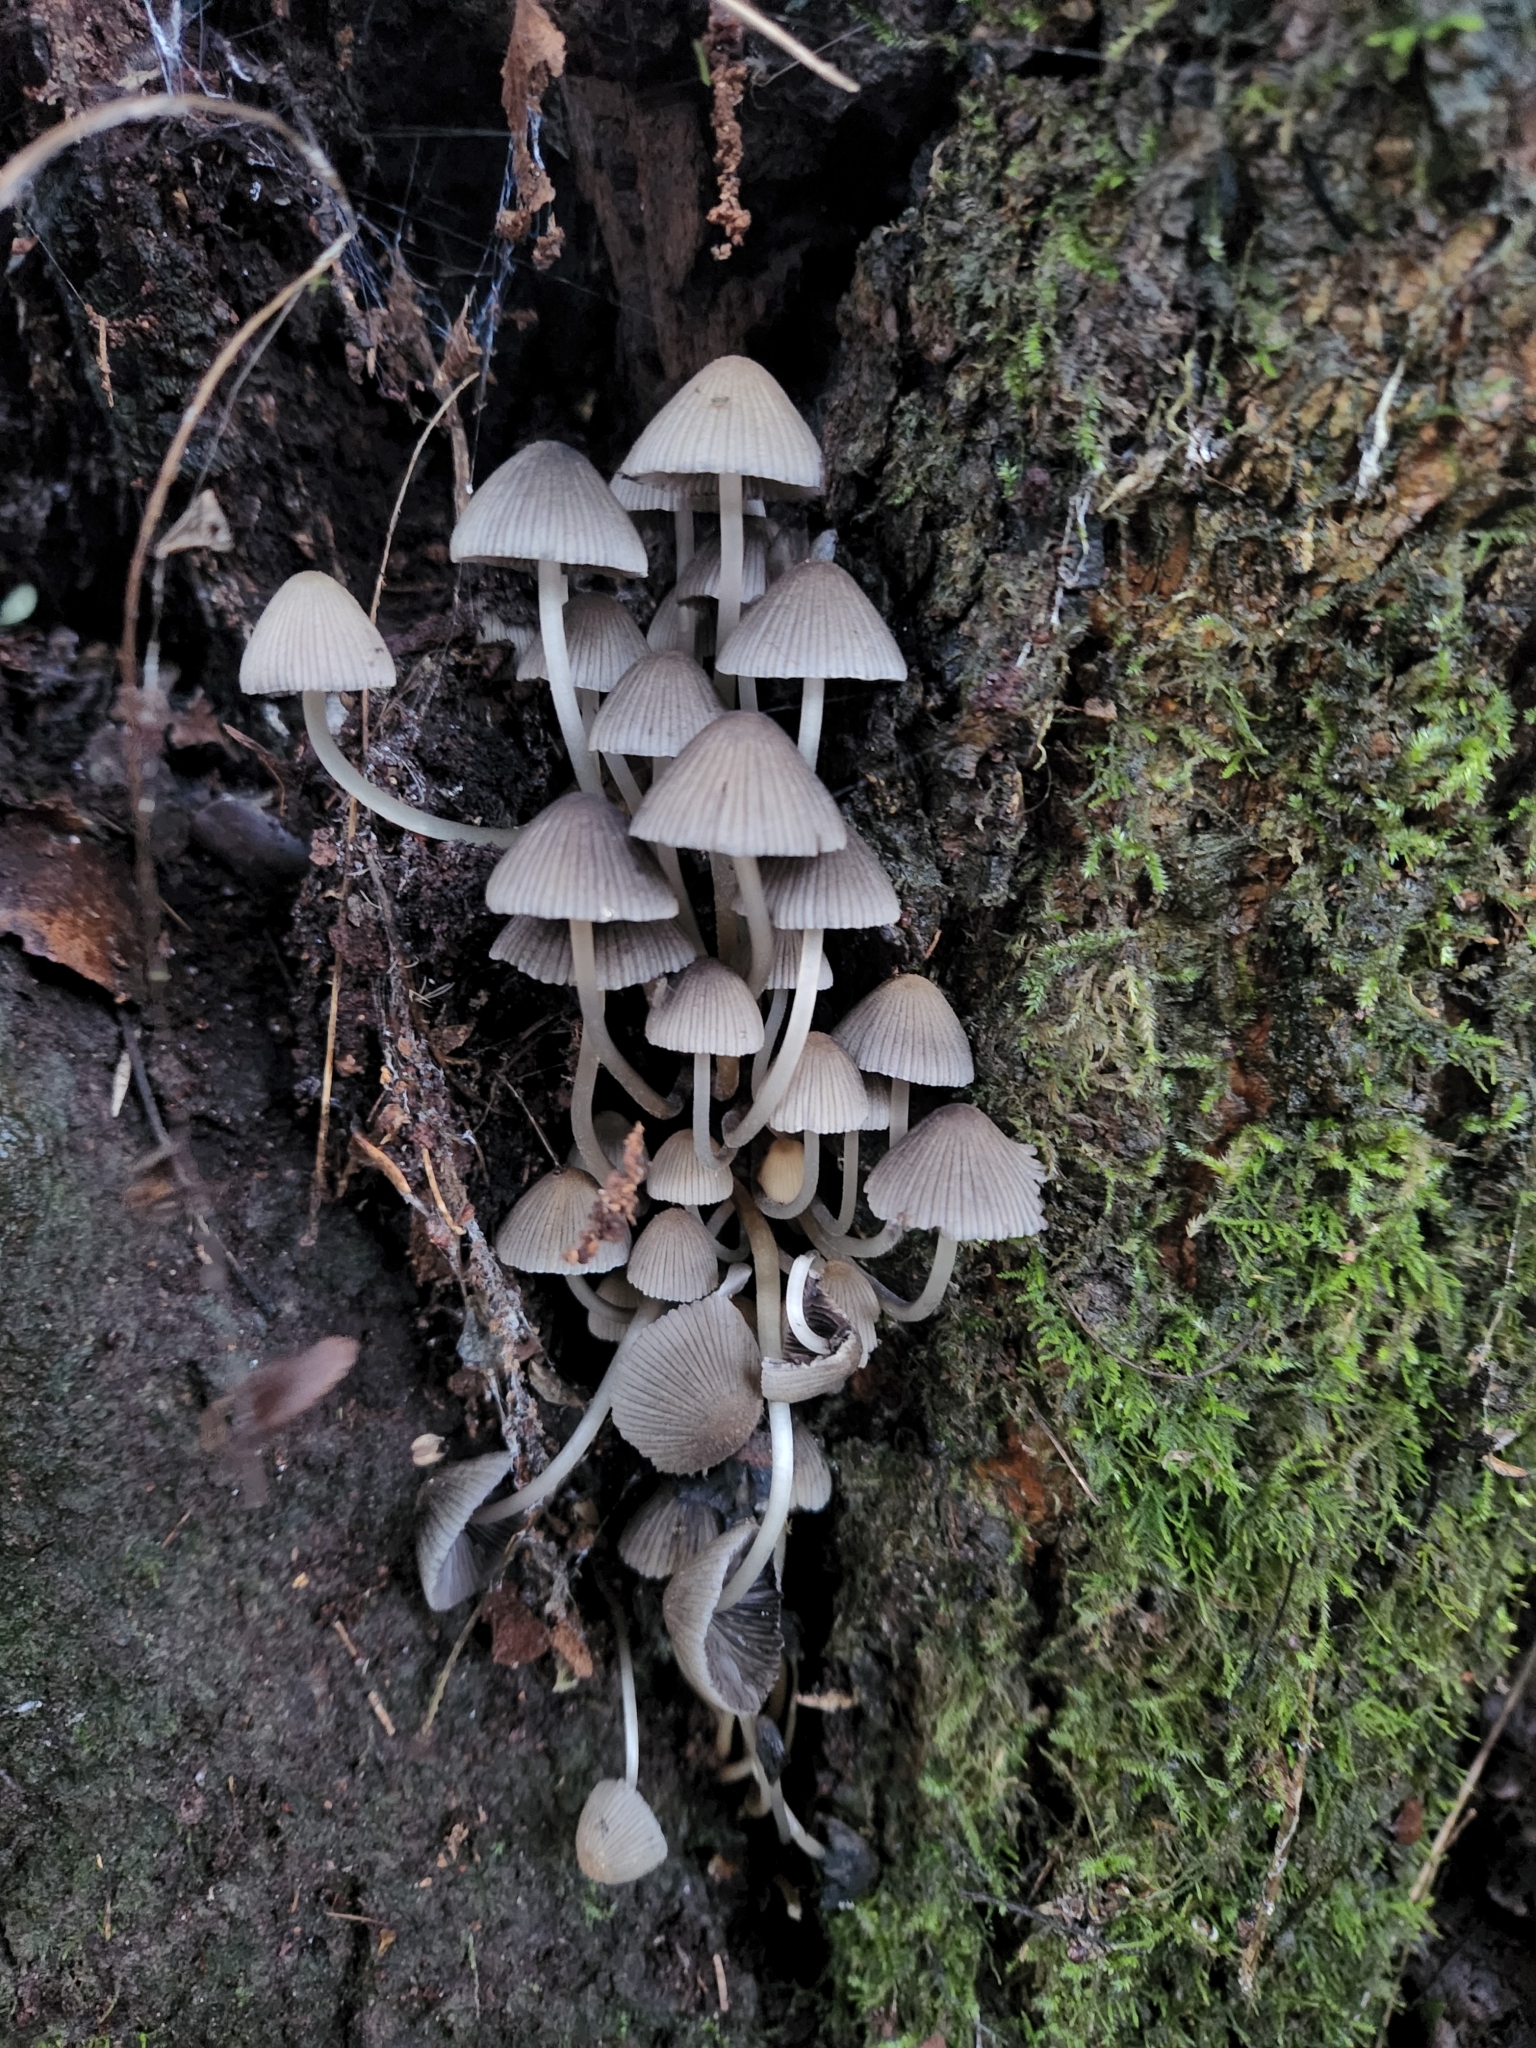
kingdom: Fungi
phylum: Basidiomycota
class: Agaricomycetes
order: Agaricales
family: Psathyrellaceae
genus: Coprinellus
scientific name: Coprinellus disseminatus
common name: Fairies' bonnets
